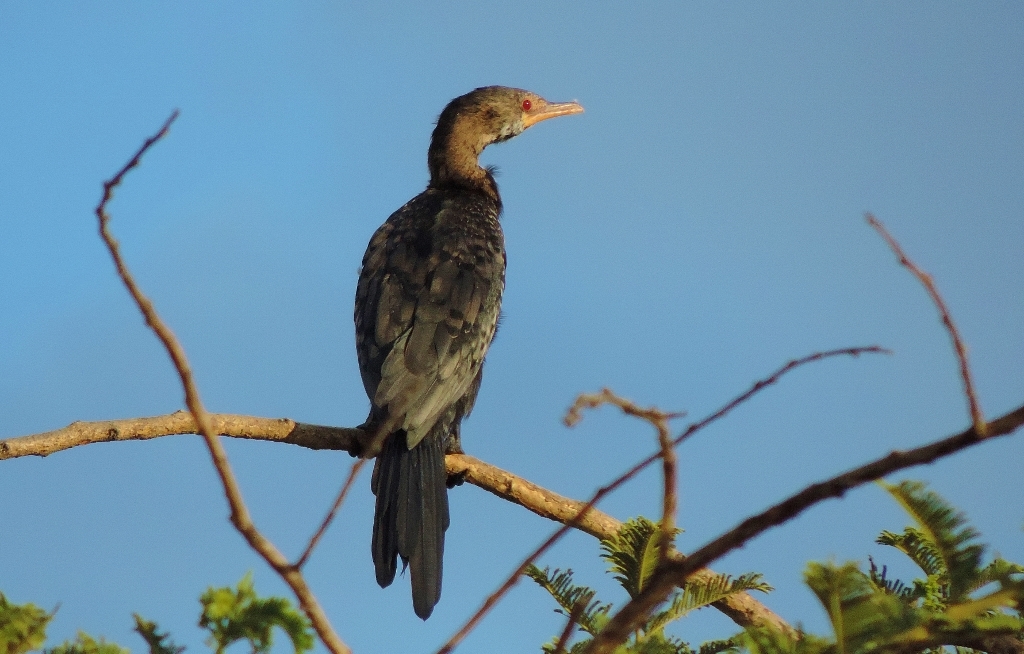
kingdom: Animalia
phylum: Chordata
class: Aves
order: Suliformes
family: Phalacrocoracidae
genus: Microcarbo
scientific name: Microcarbo africanus
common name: Long-tailed cormorant
